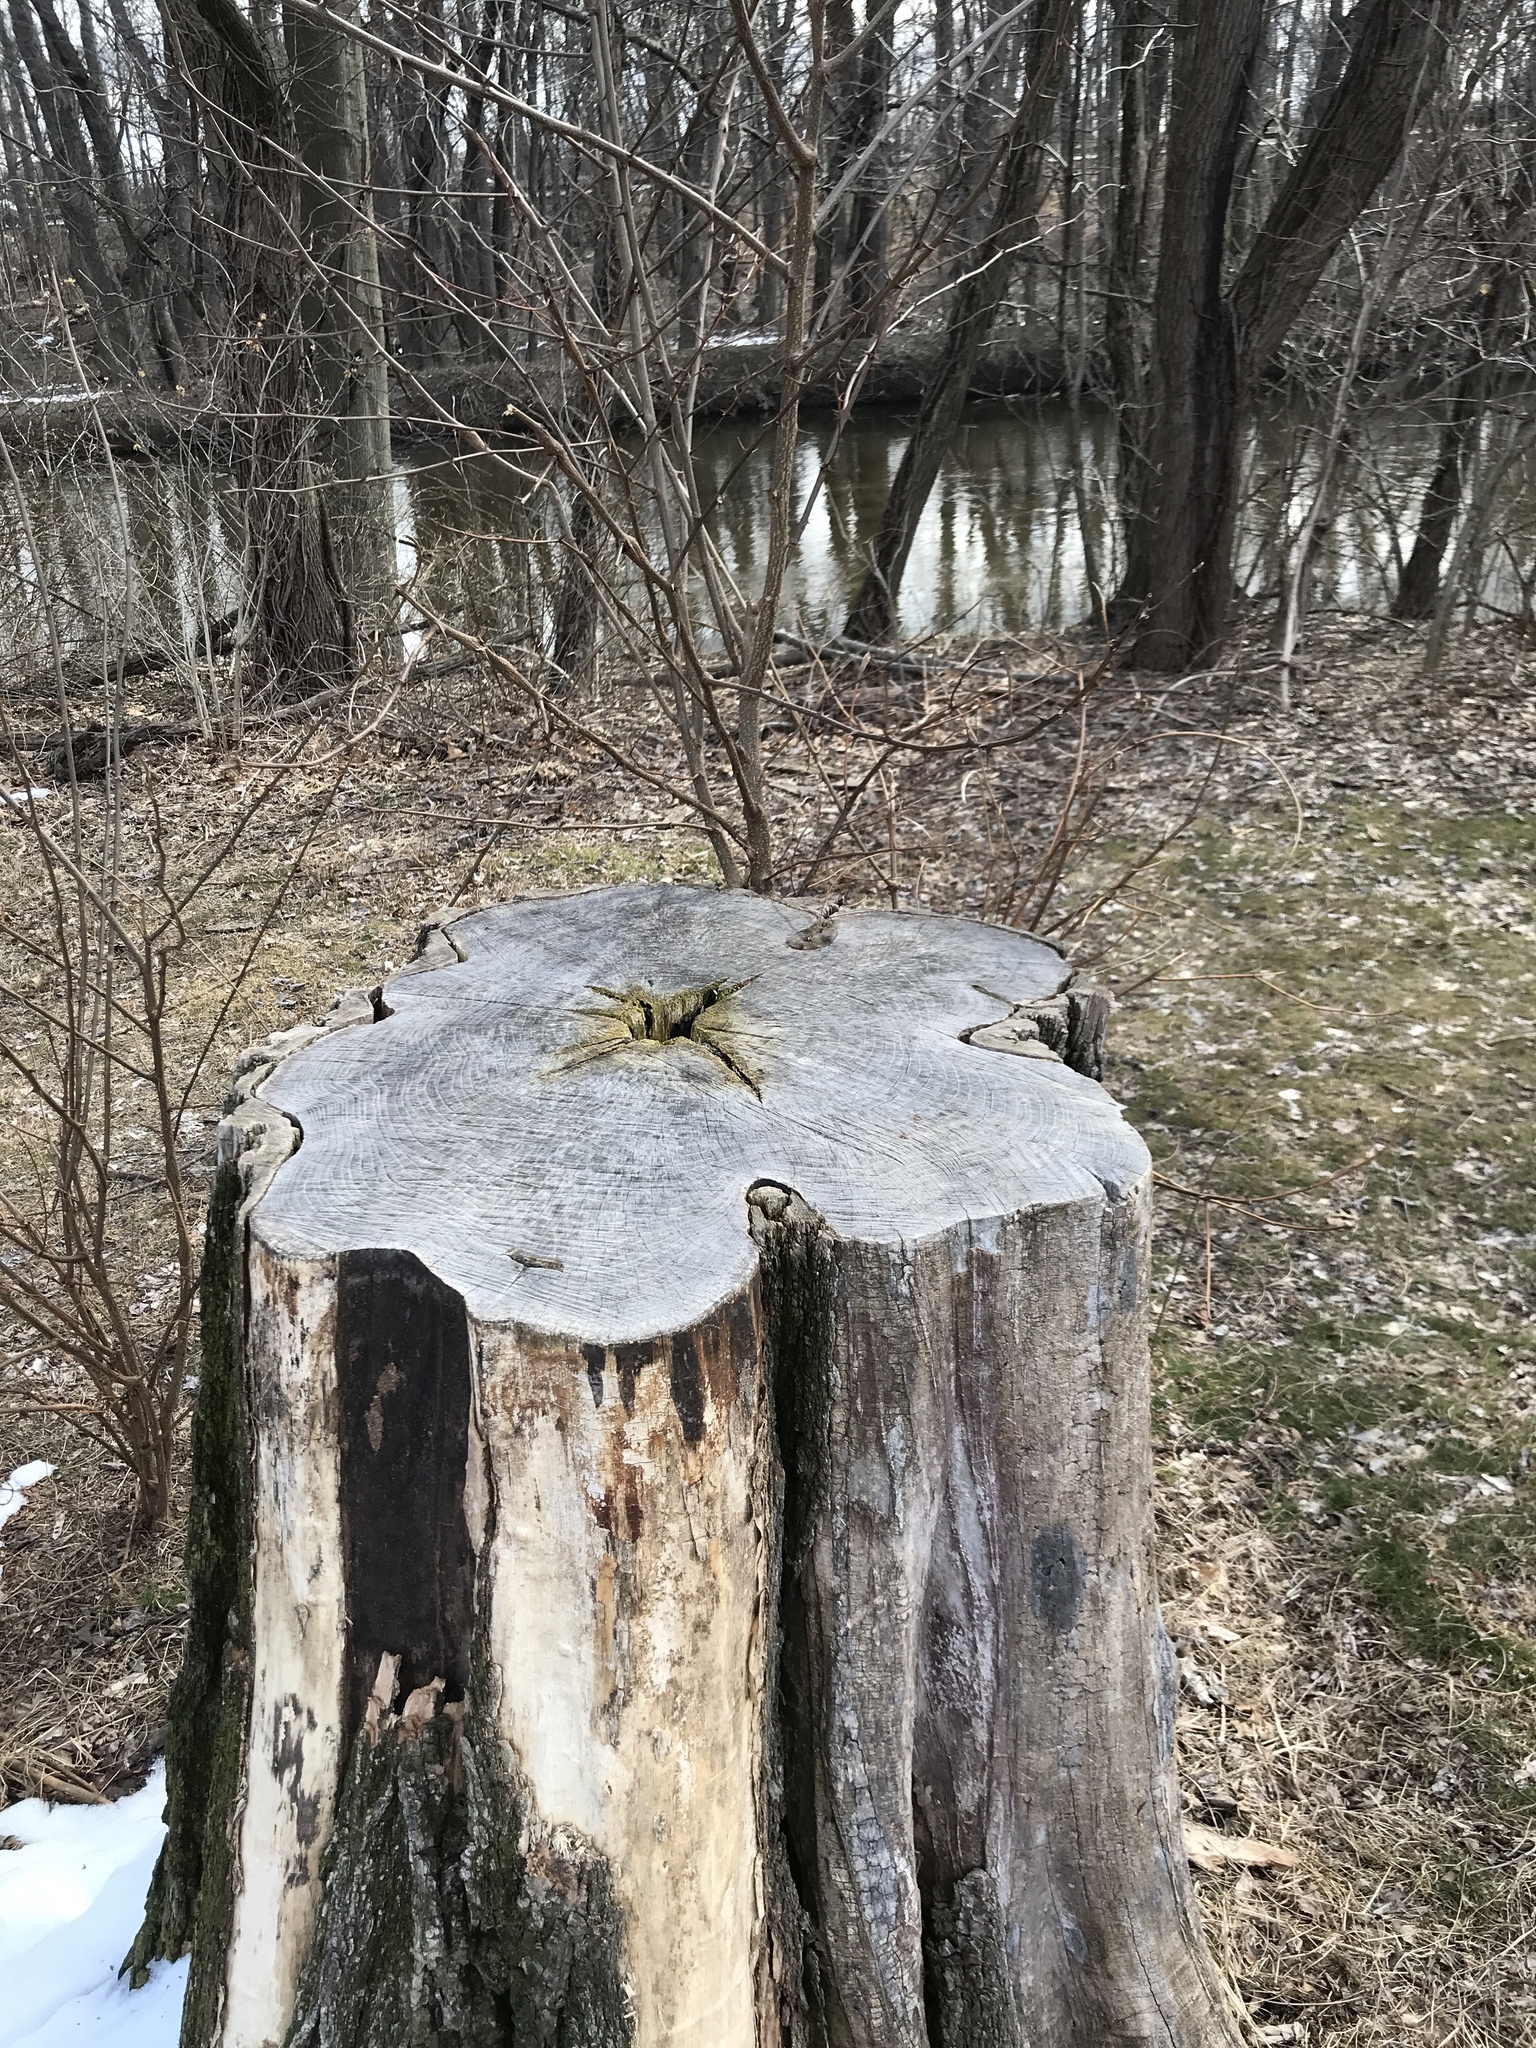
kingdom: Plantae
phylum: Tracheophyta
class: Magnoliopsida
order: Fabales
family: Fabaceae
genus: Robinia
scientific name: Robinia pseudoacacia
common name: Black locust
